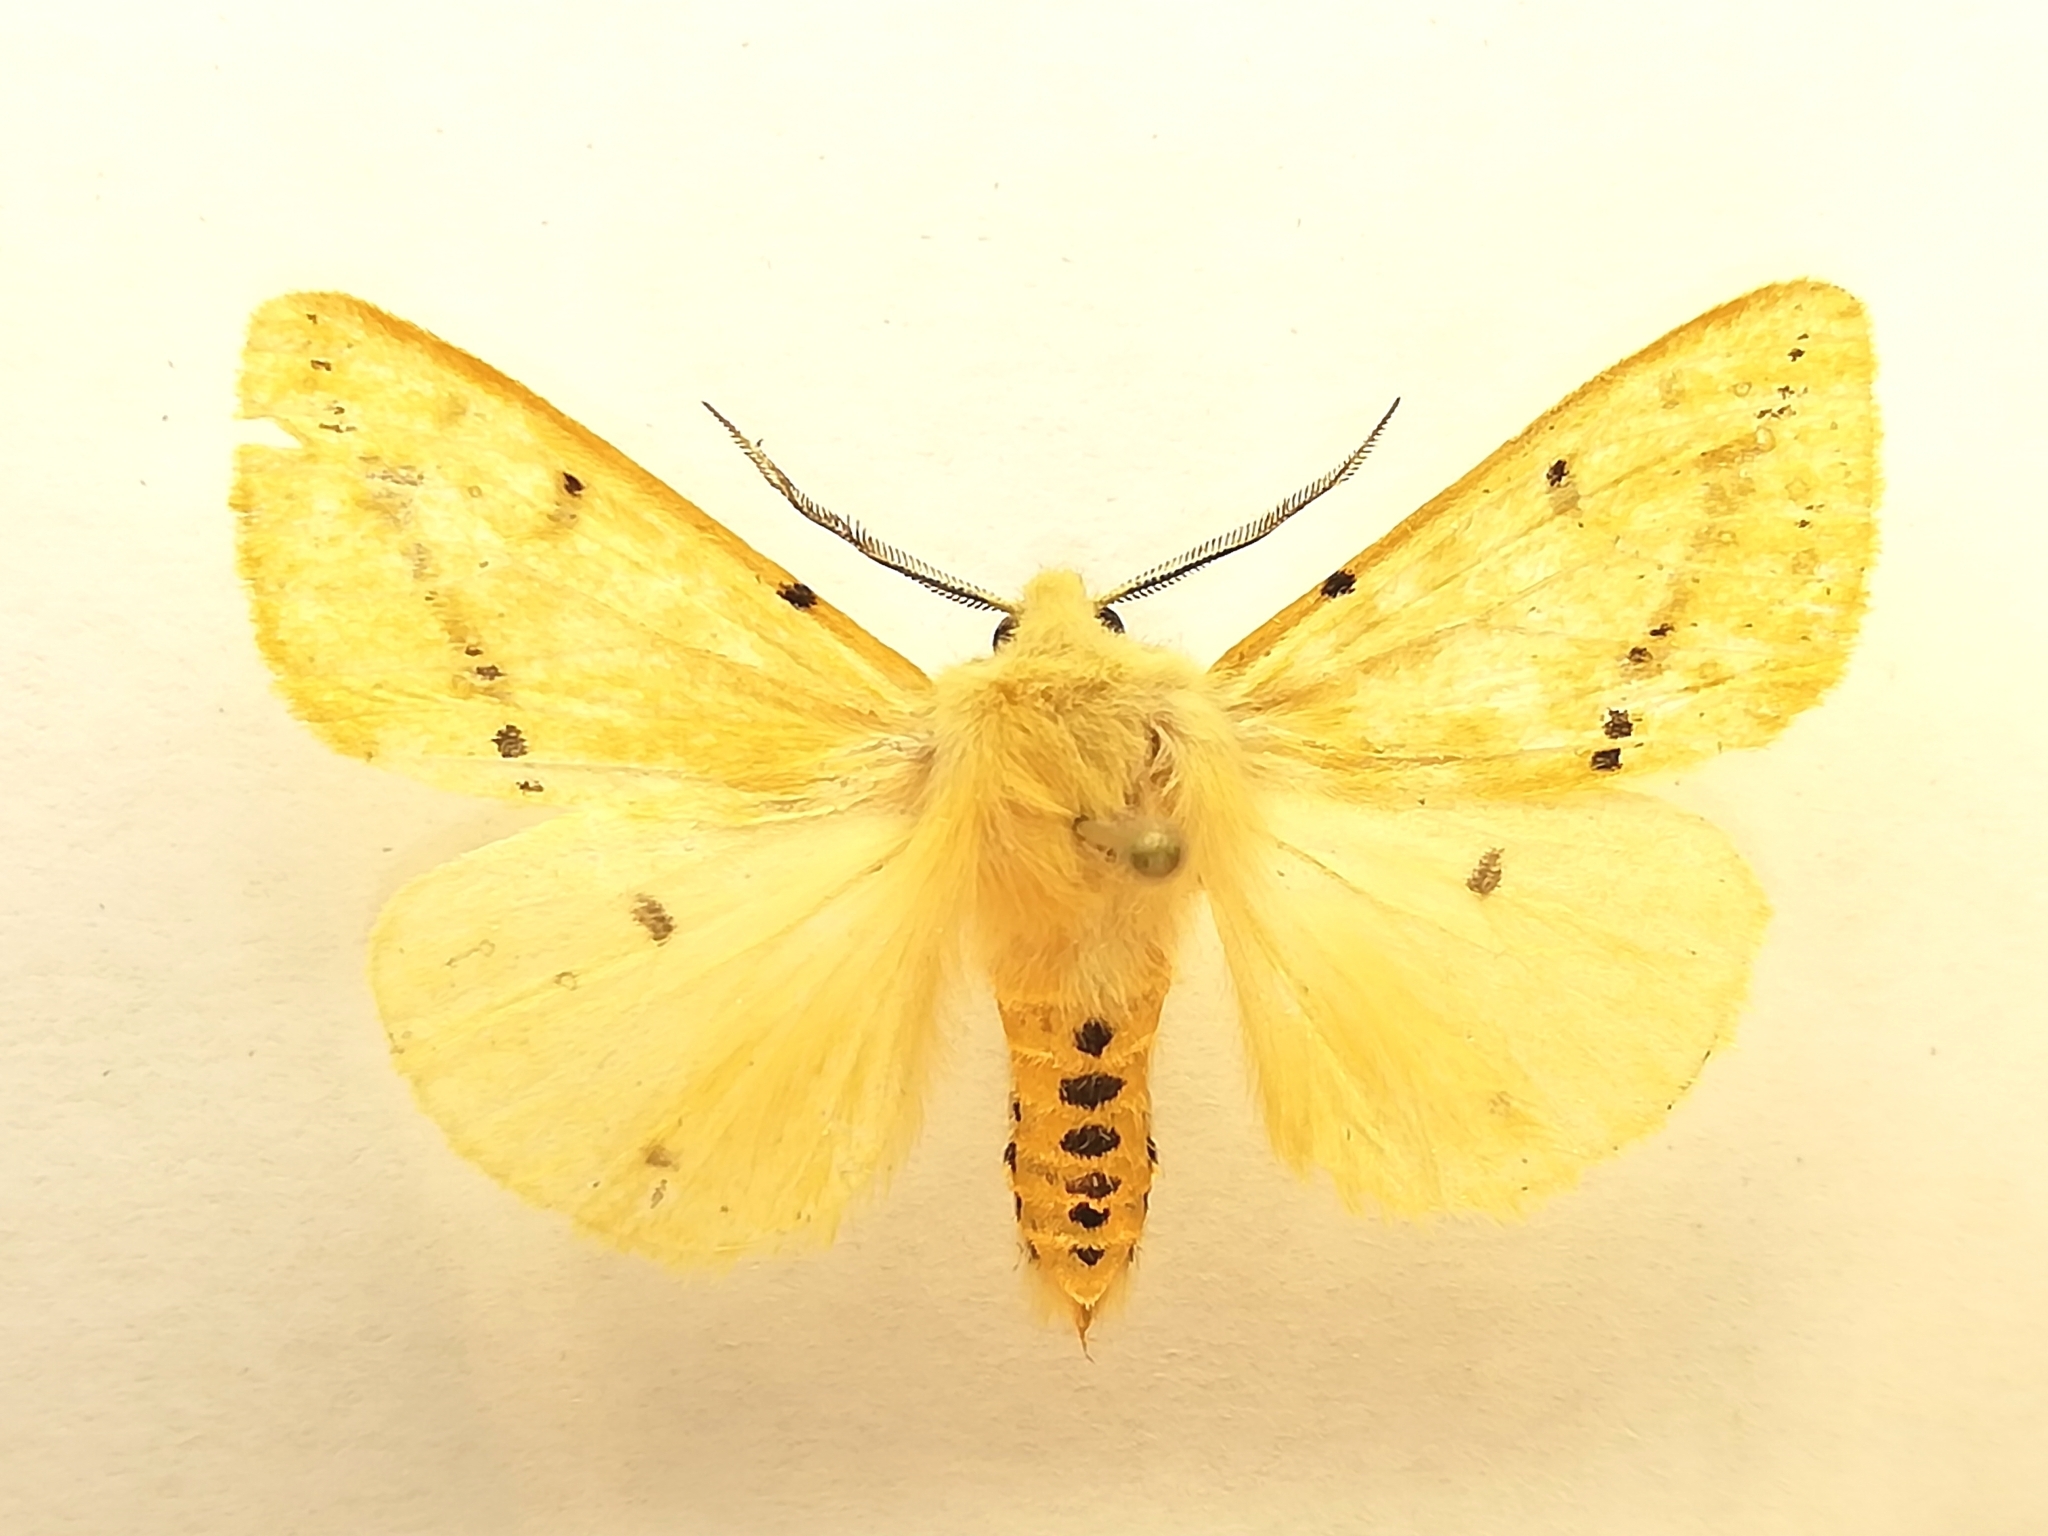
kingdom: Animalia
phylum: Arthropoda
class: Insecta
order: Lepidoptera
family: Erebidae
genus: Spilarctia
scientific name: Spilarctia lutea
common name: Buff ermine
